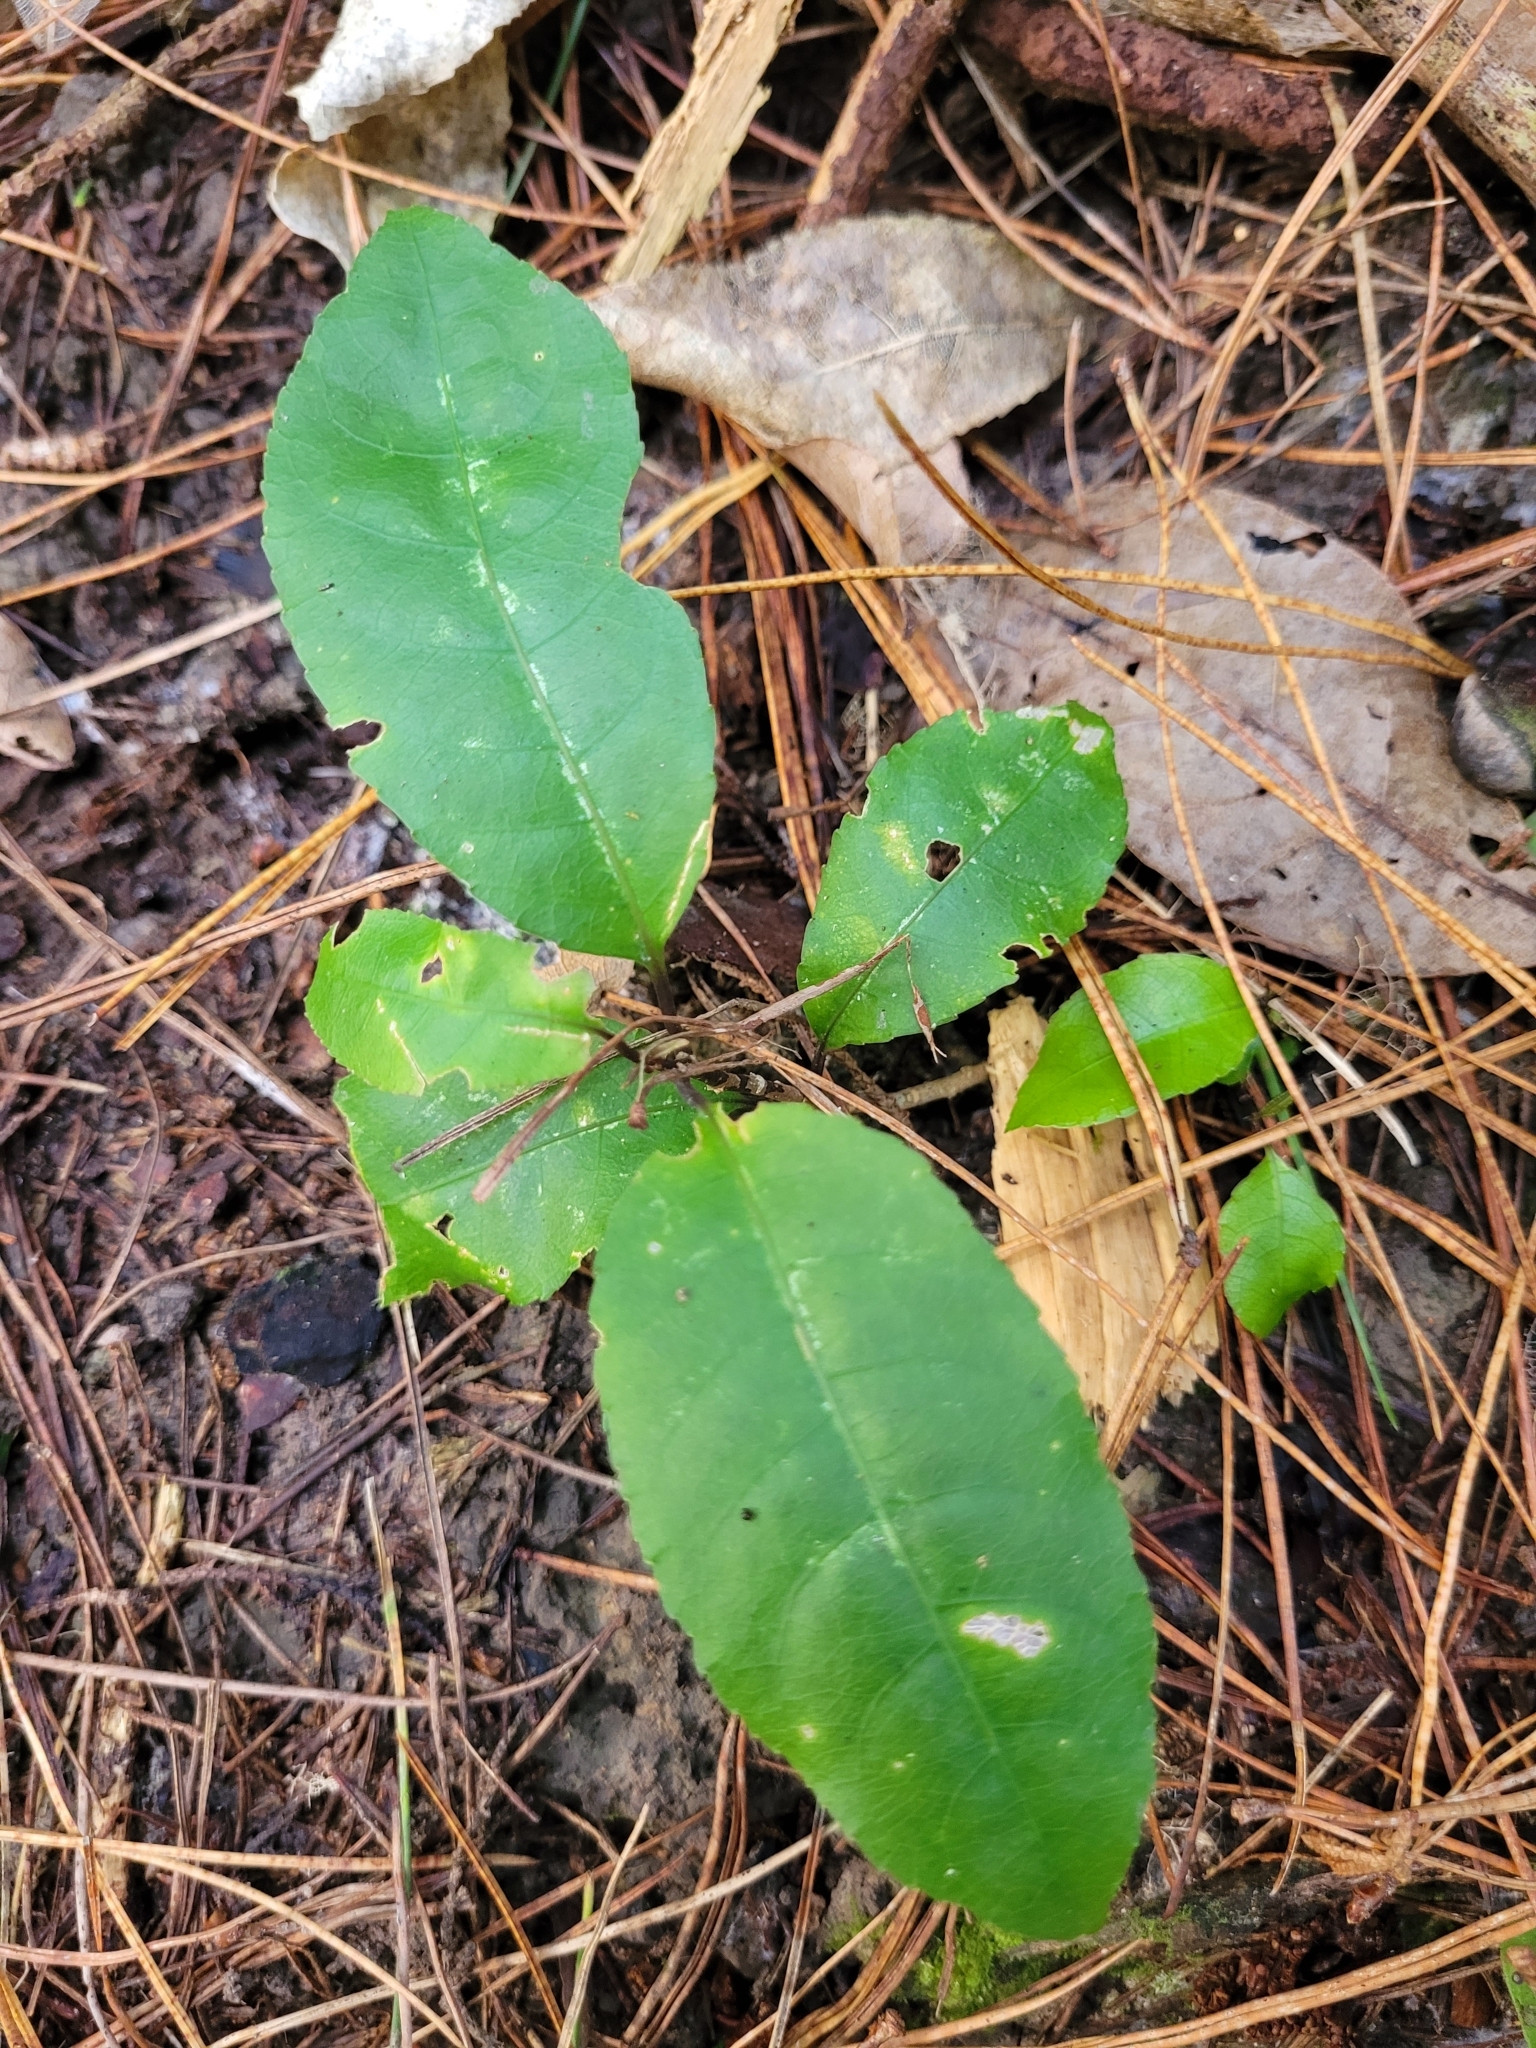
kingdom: Plantae
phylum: Tracheophyta
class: Magnoliopsida
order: Malpighiales
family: Violaceae
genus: Melicytus
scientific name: Melicytus ramiflorus
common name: Mahoe
